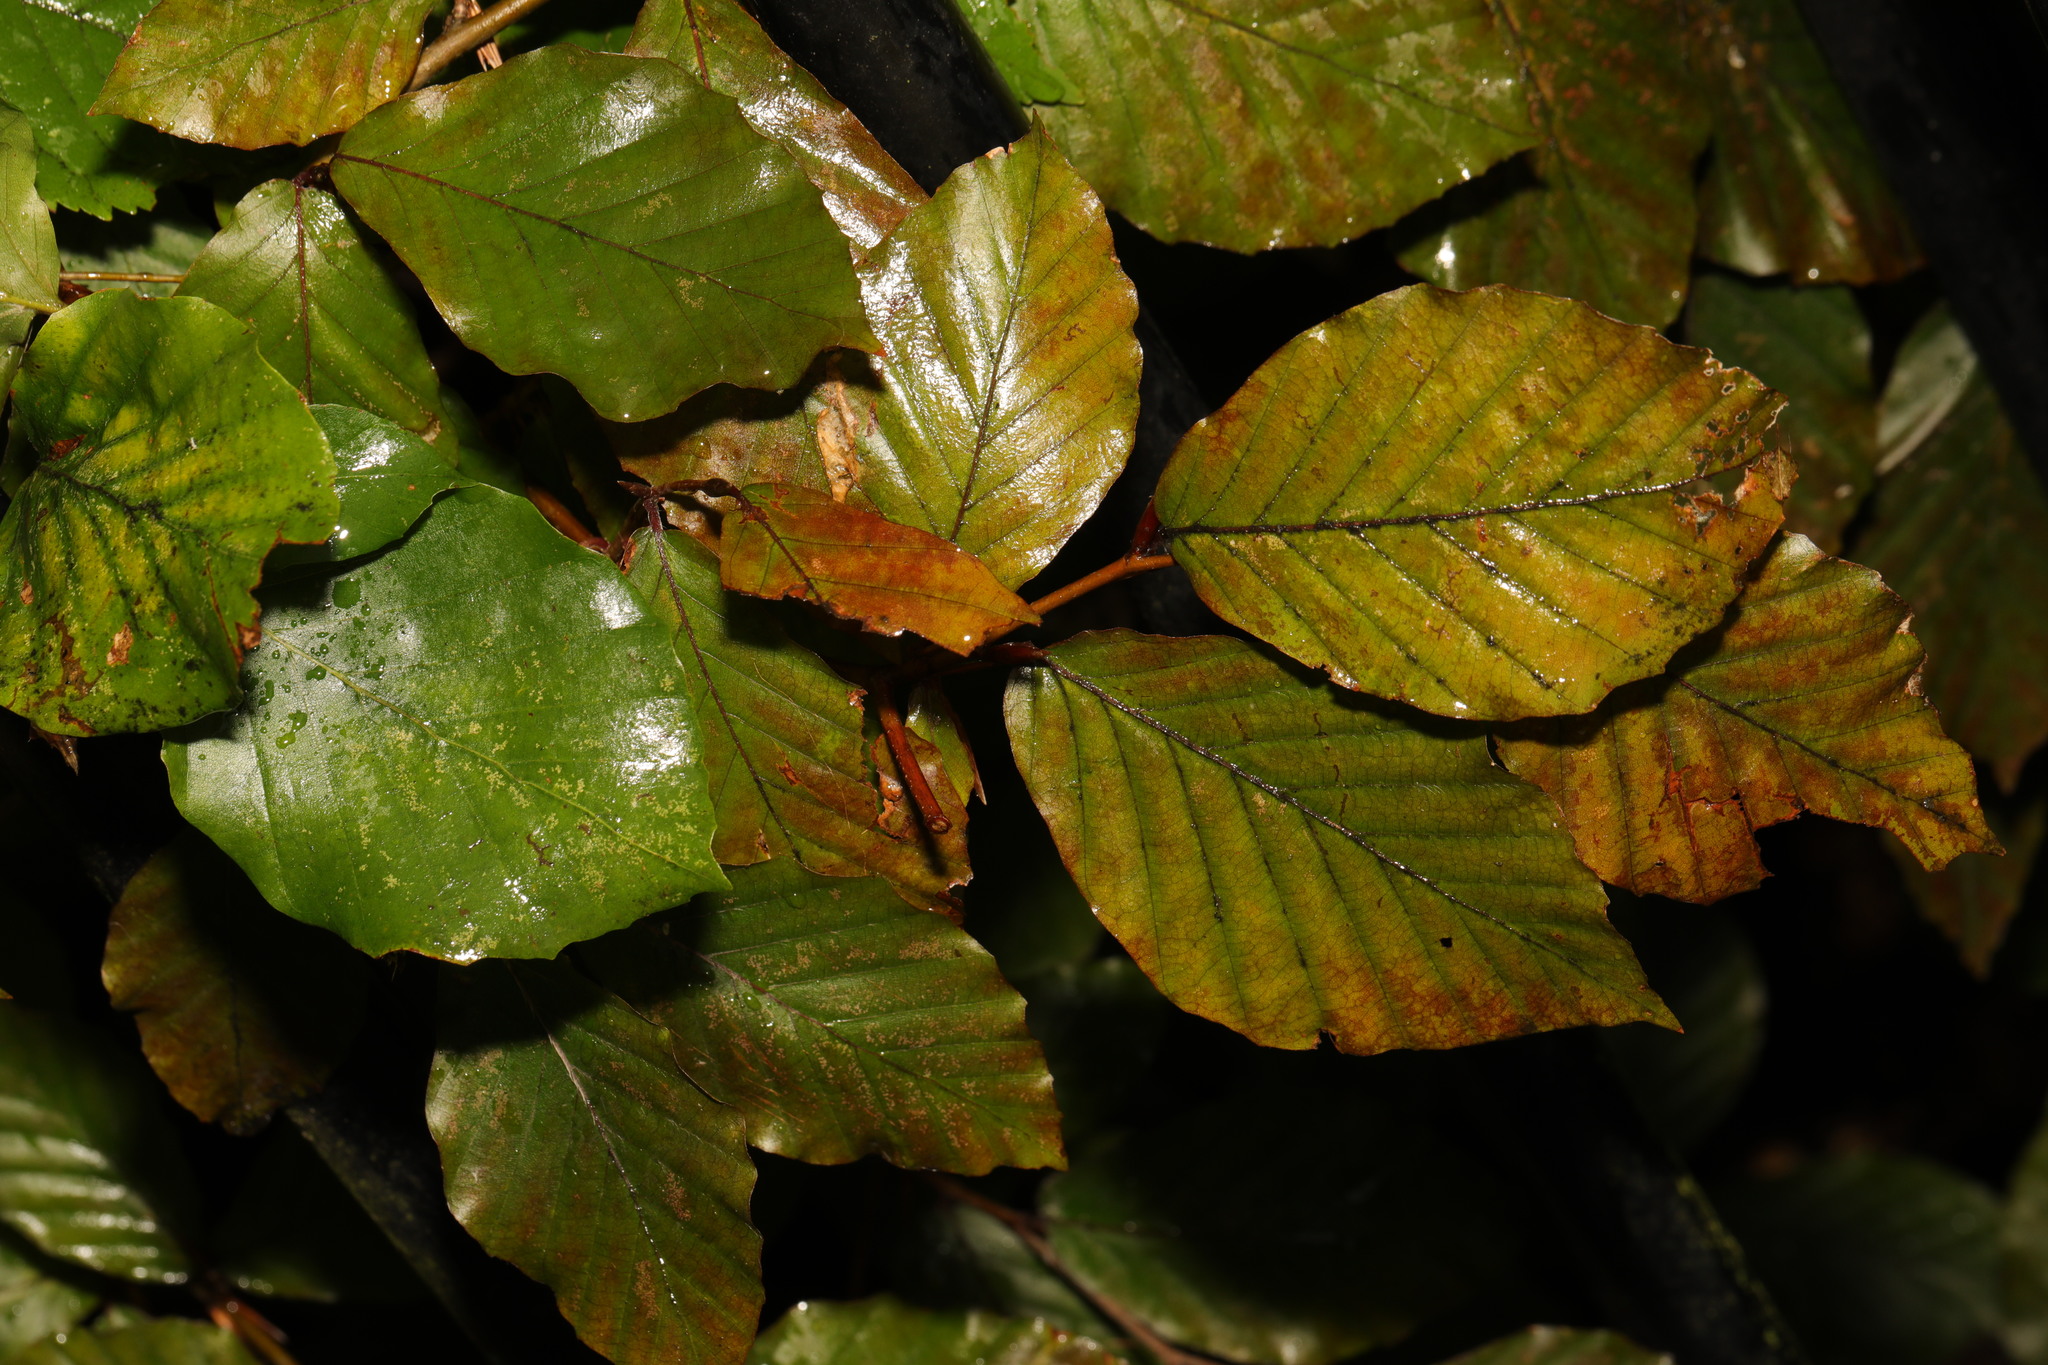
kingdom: Plantae
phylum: Tracheophyta
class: Magnoliopsida
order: Fagales
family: Fagaceae
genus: Fagus
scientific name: Fagus sylvatica
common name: Beech
